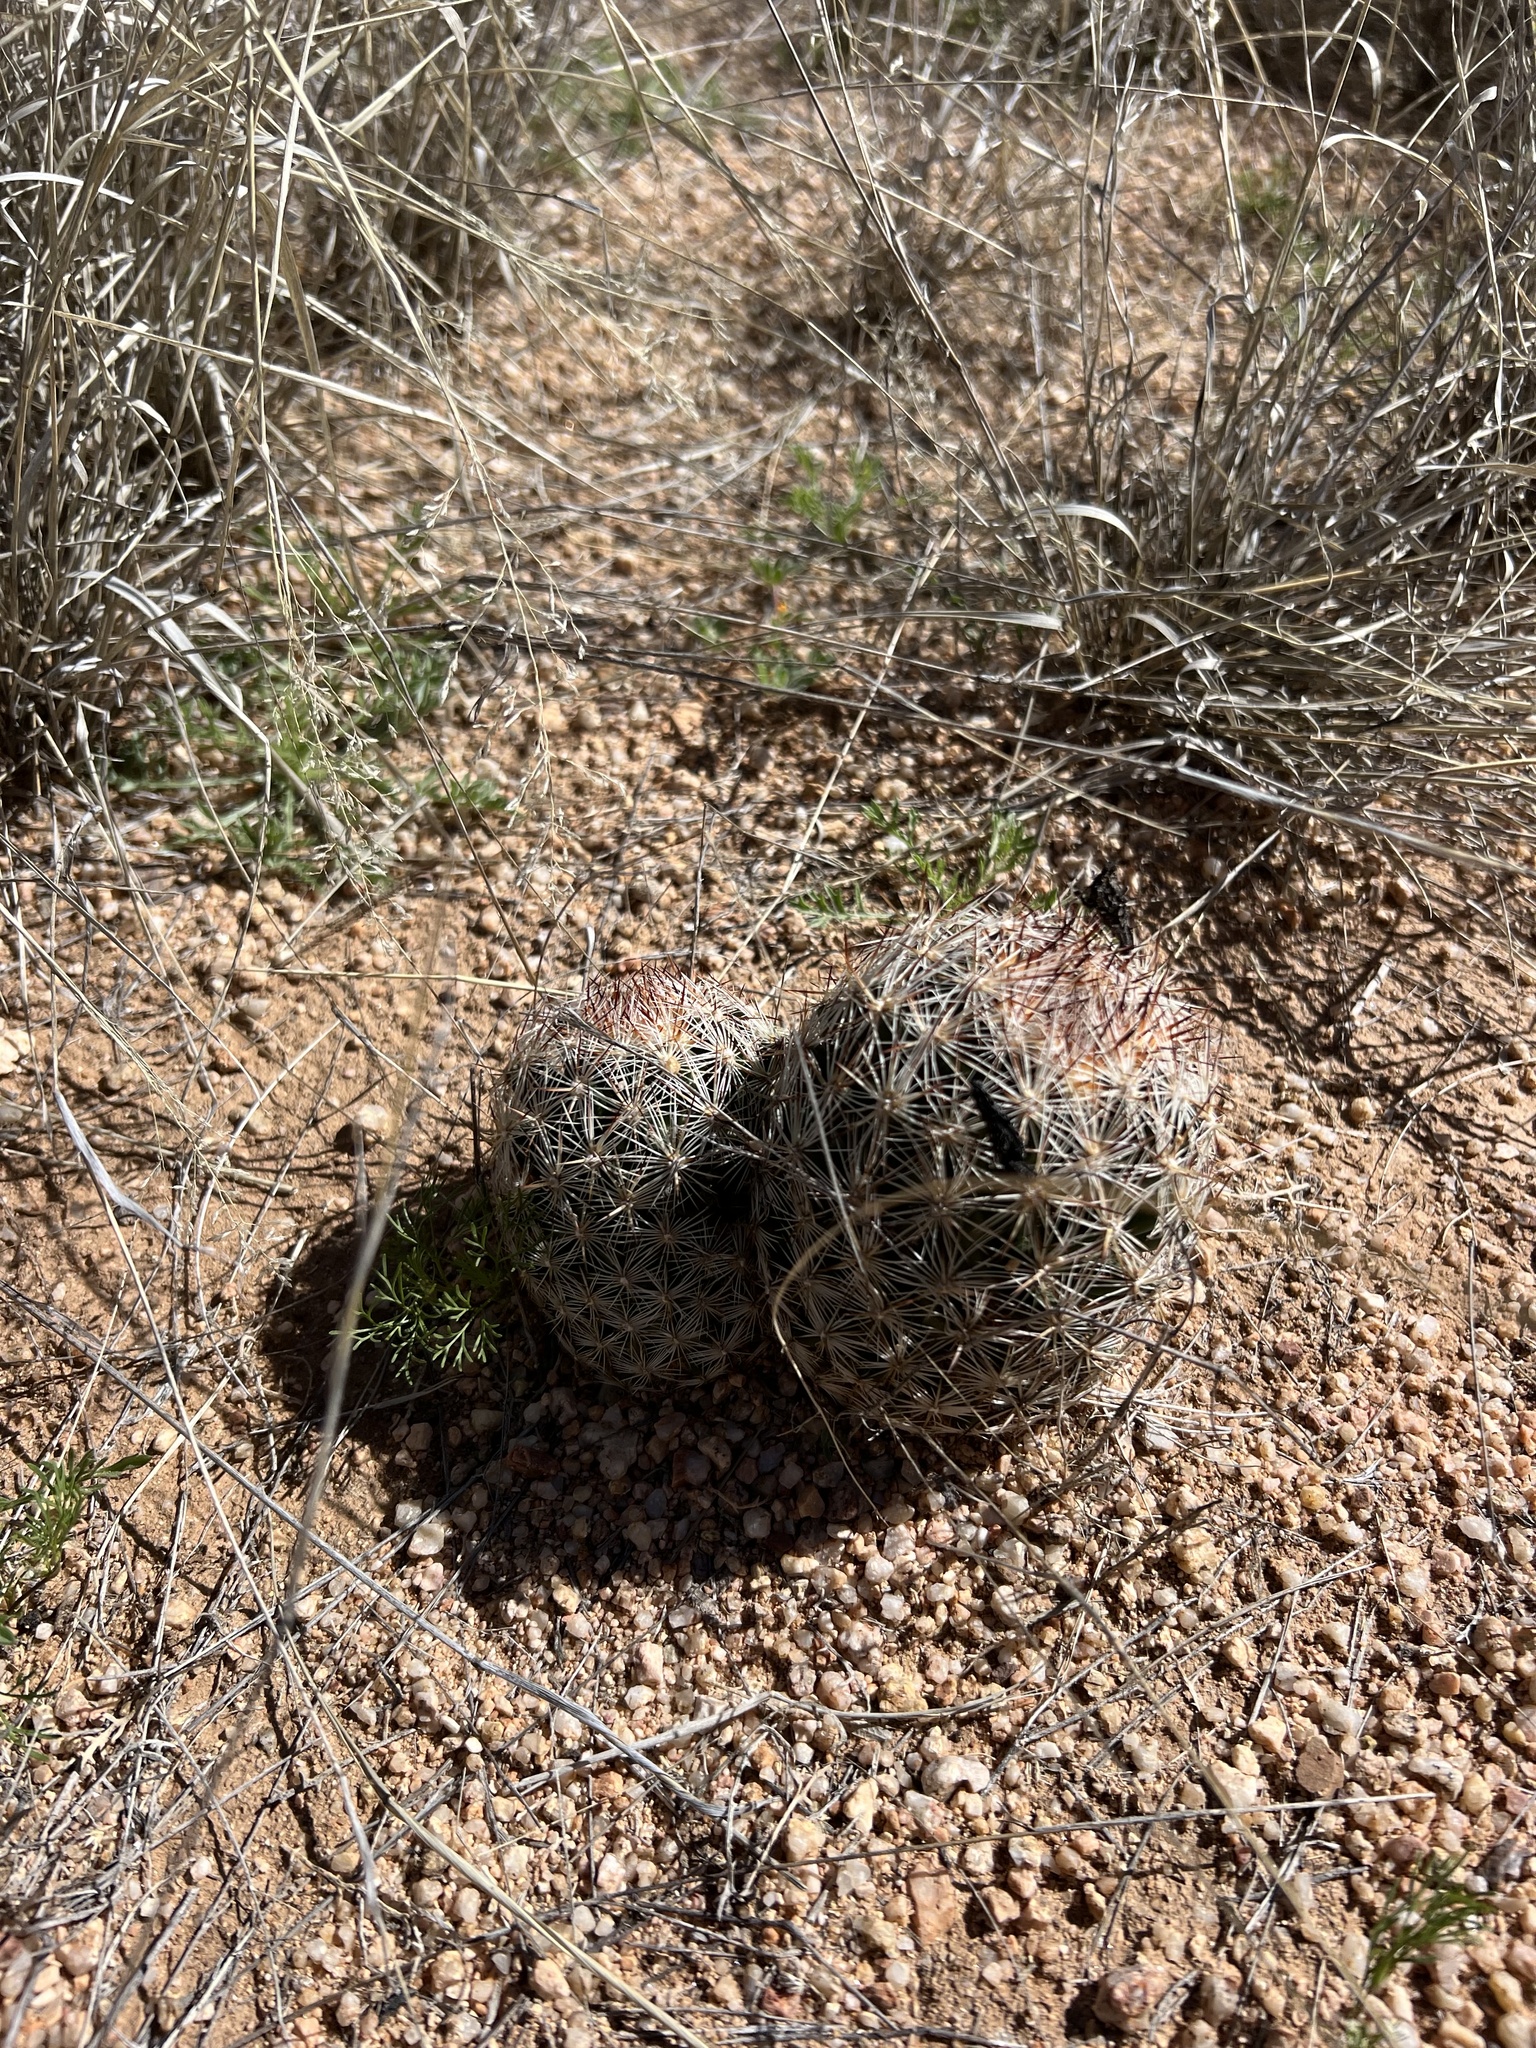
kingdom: Plantae
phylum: Tracheophyta
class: Magnoliopsida
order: Caryophyllales
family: Cactaceae
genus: Pelecyphora
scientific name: Pelecyphora vivipara
